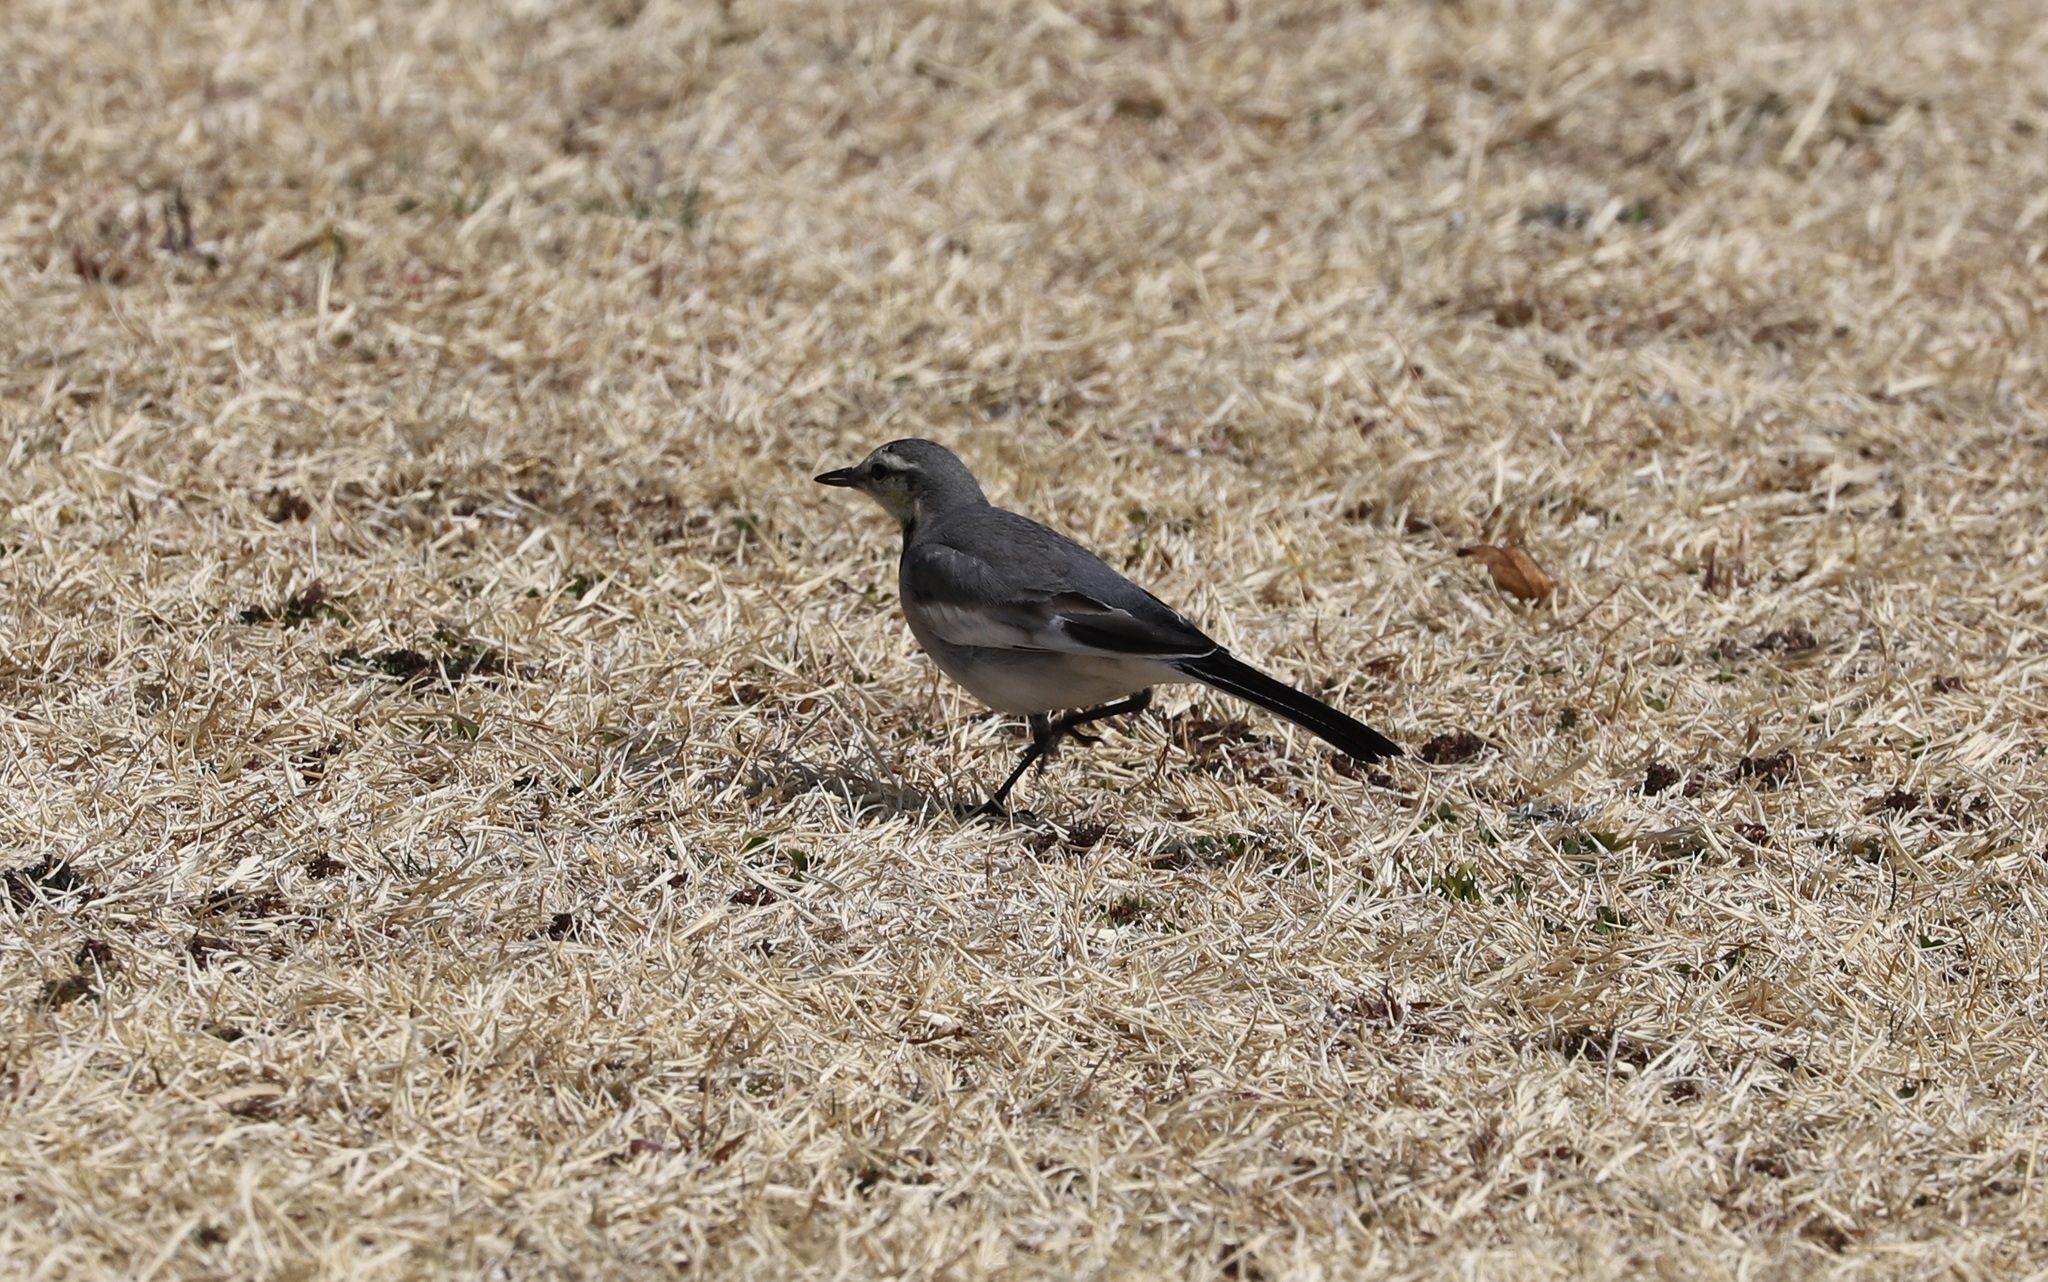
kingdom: Animalia
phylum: Chordata
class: Aves
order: Passeriformes
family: Motacillidae
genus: Motacilla
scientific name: Motacilla alba
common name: White wagtail
